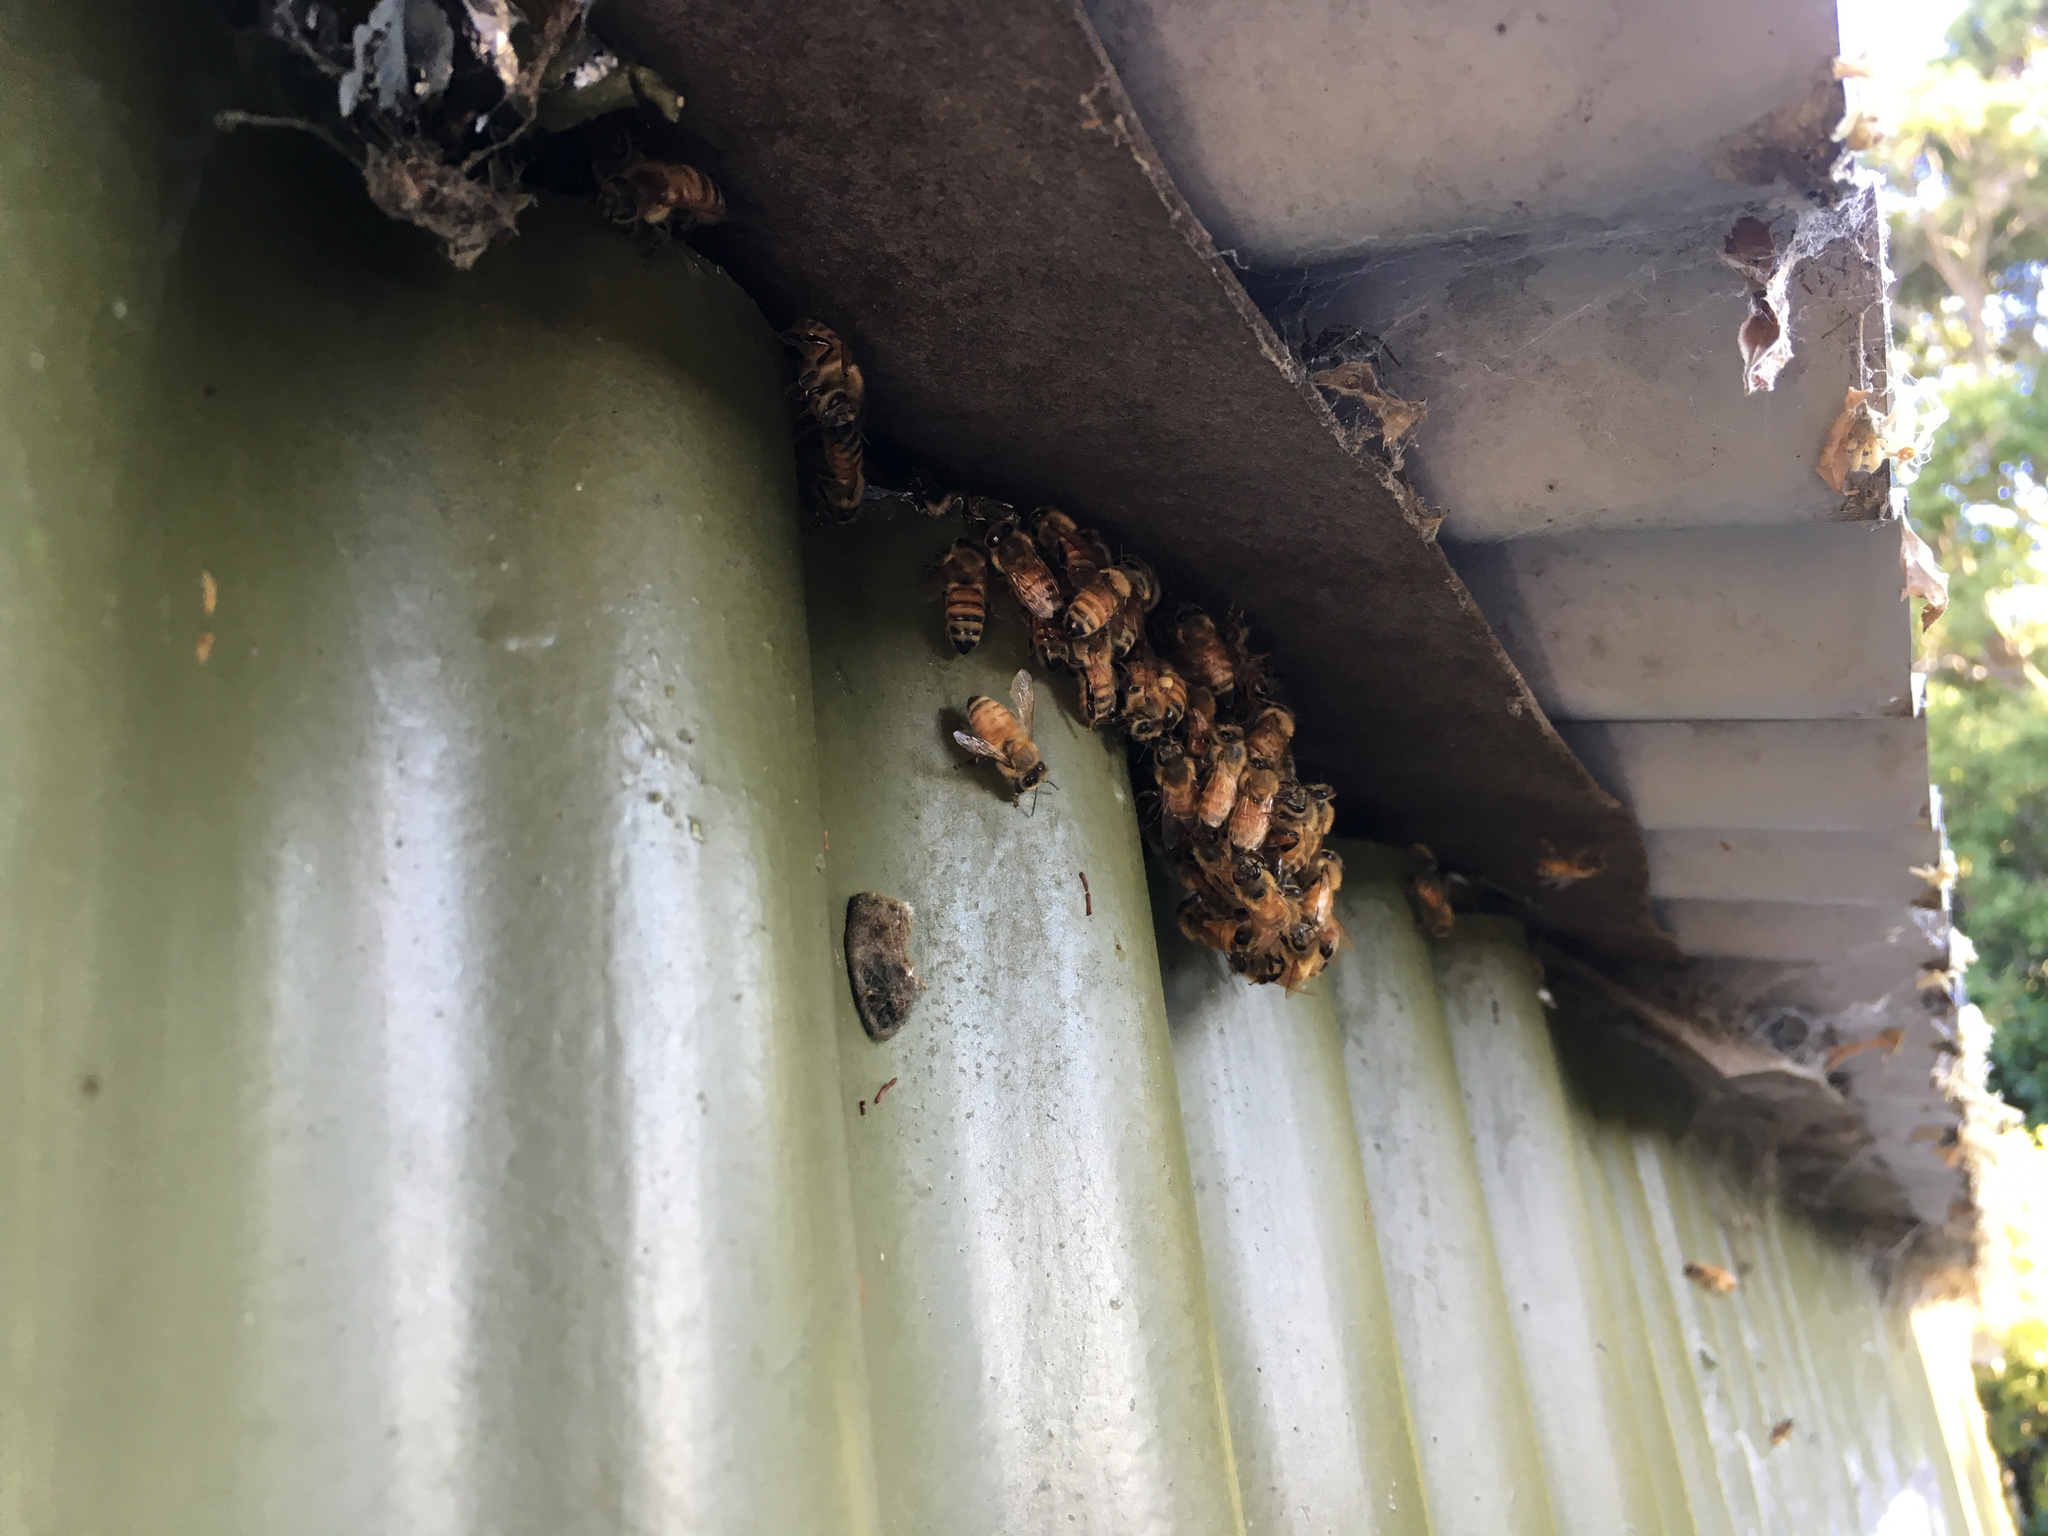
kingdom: Animalia
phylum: Arthropoda
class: Insecta
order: Hymenoptera
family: Apidae
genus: Apis
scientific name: Apis mellifera
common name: Honey bee
